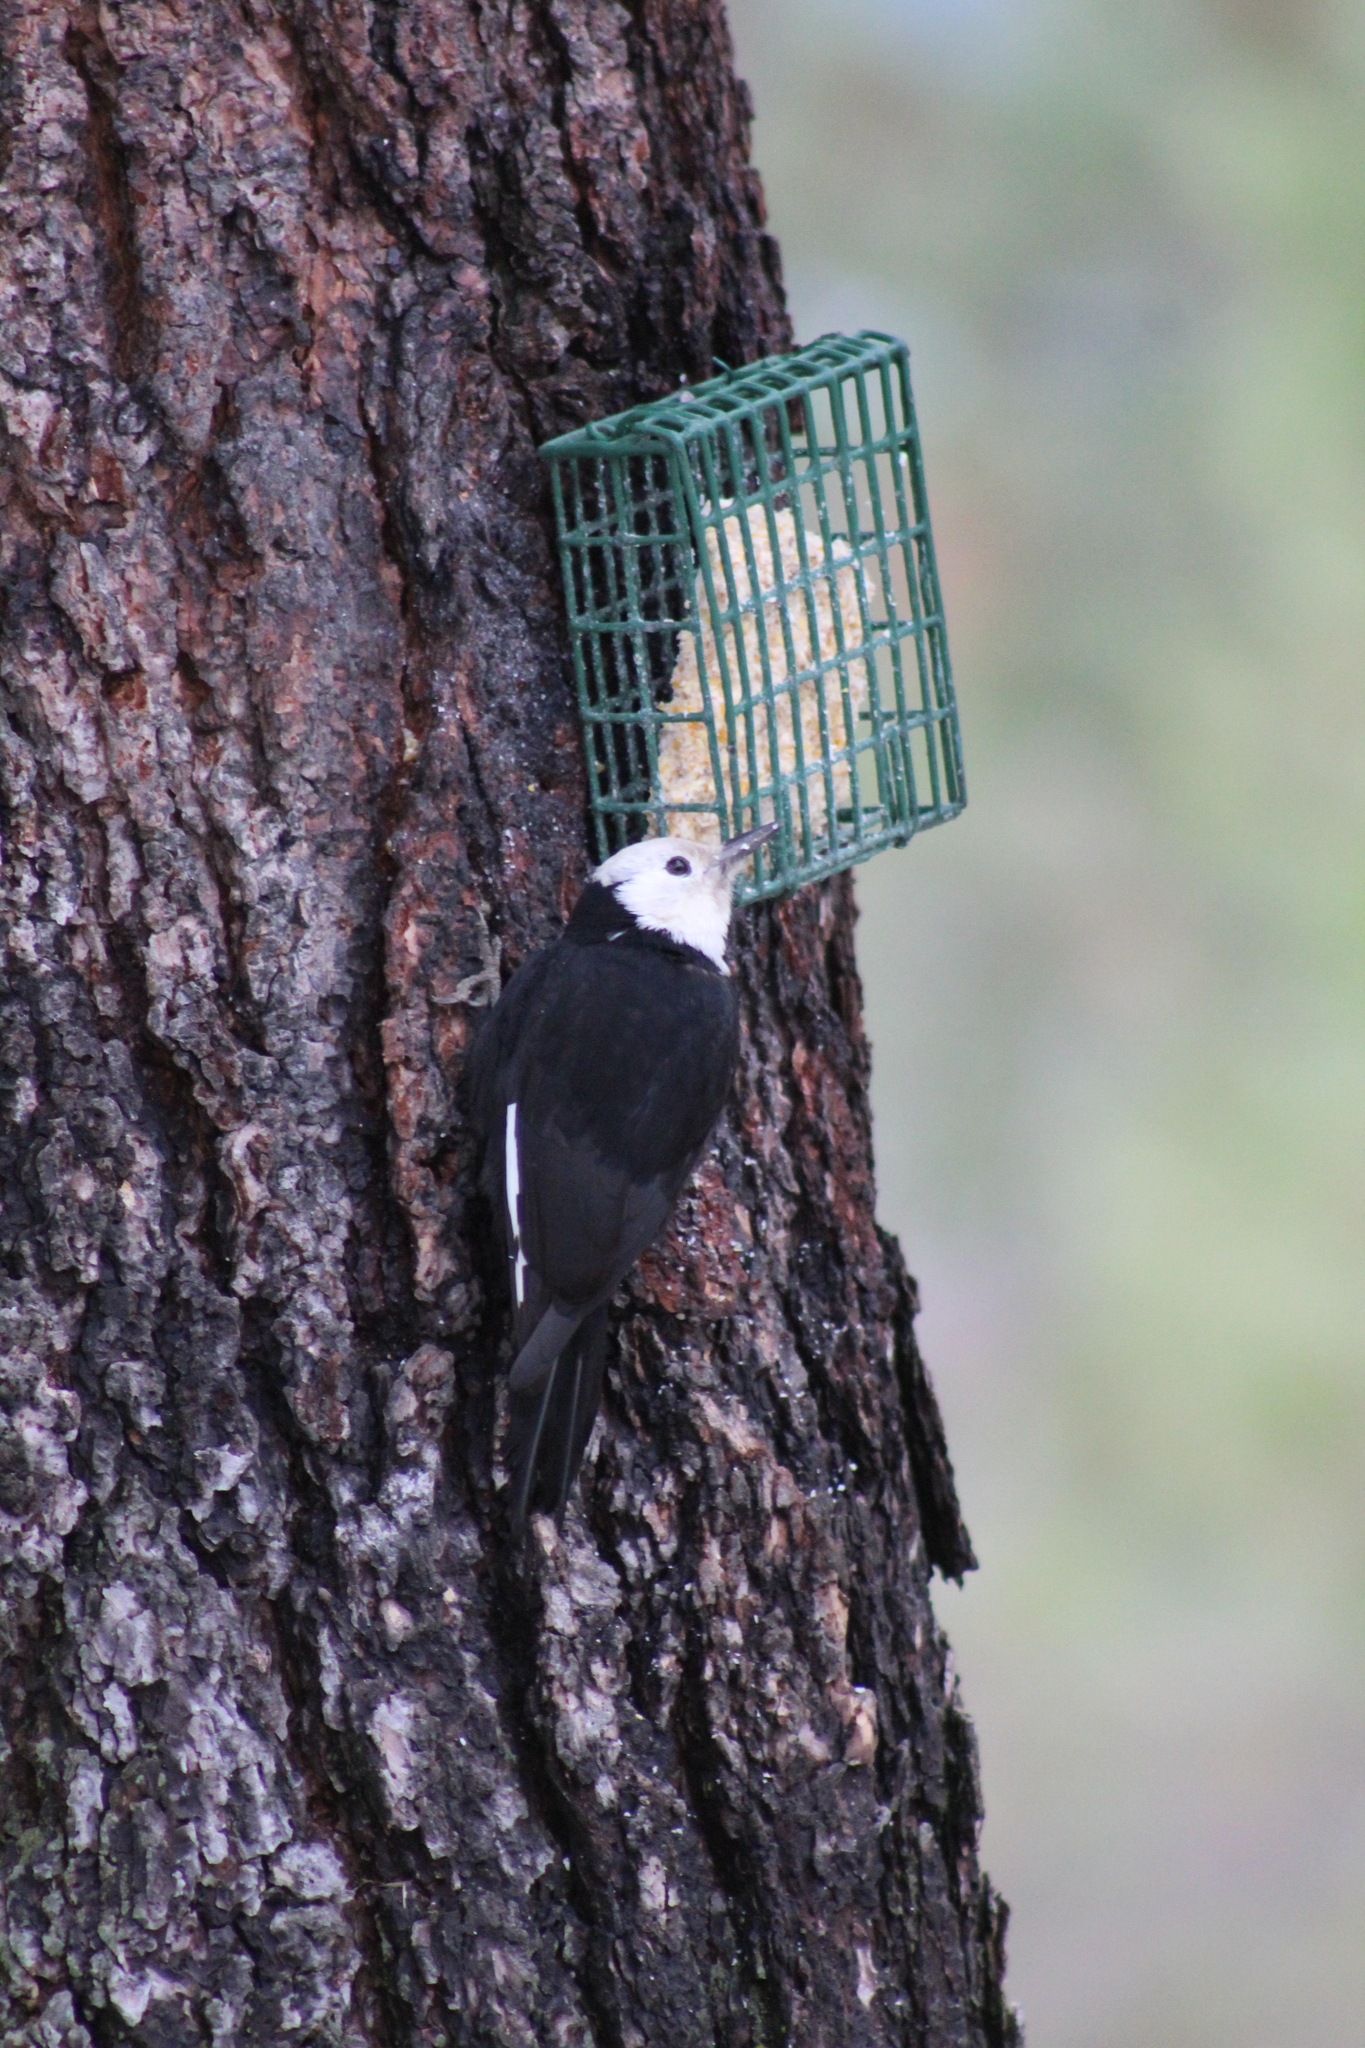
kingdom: Animalia
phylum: Chordata
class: Aves
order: Piciformes
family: Picidae
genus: Leuconotopicus
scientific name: Leuconotopicus albolarvatus
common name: White-headed woodpecker
